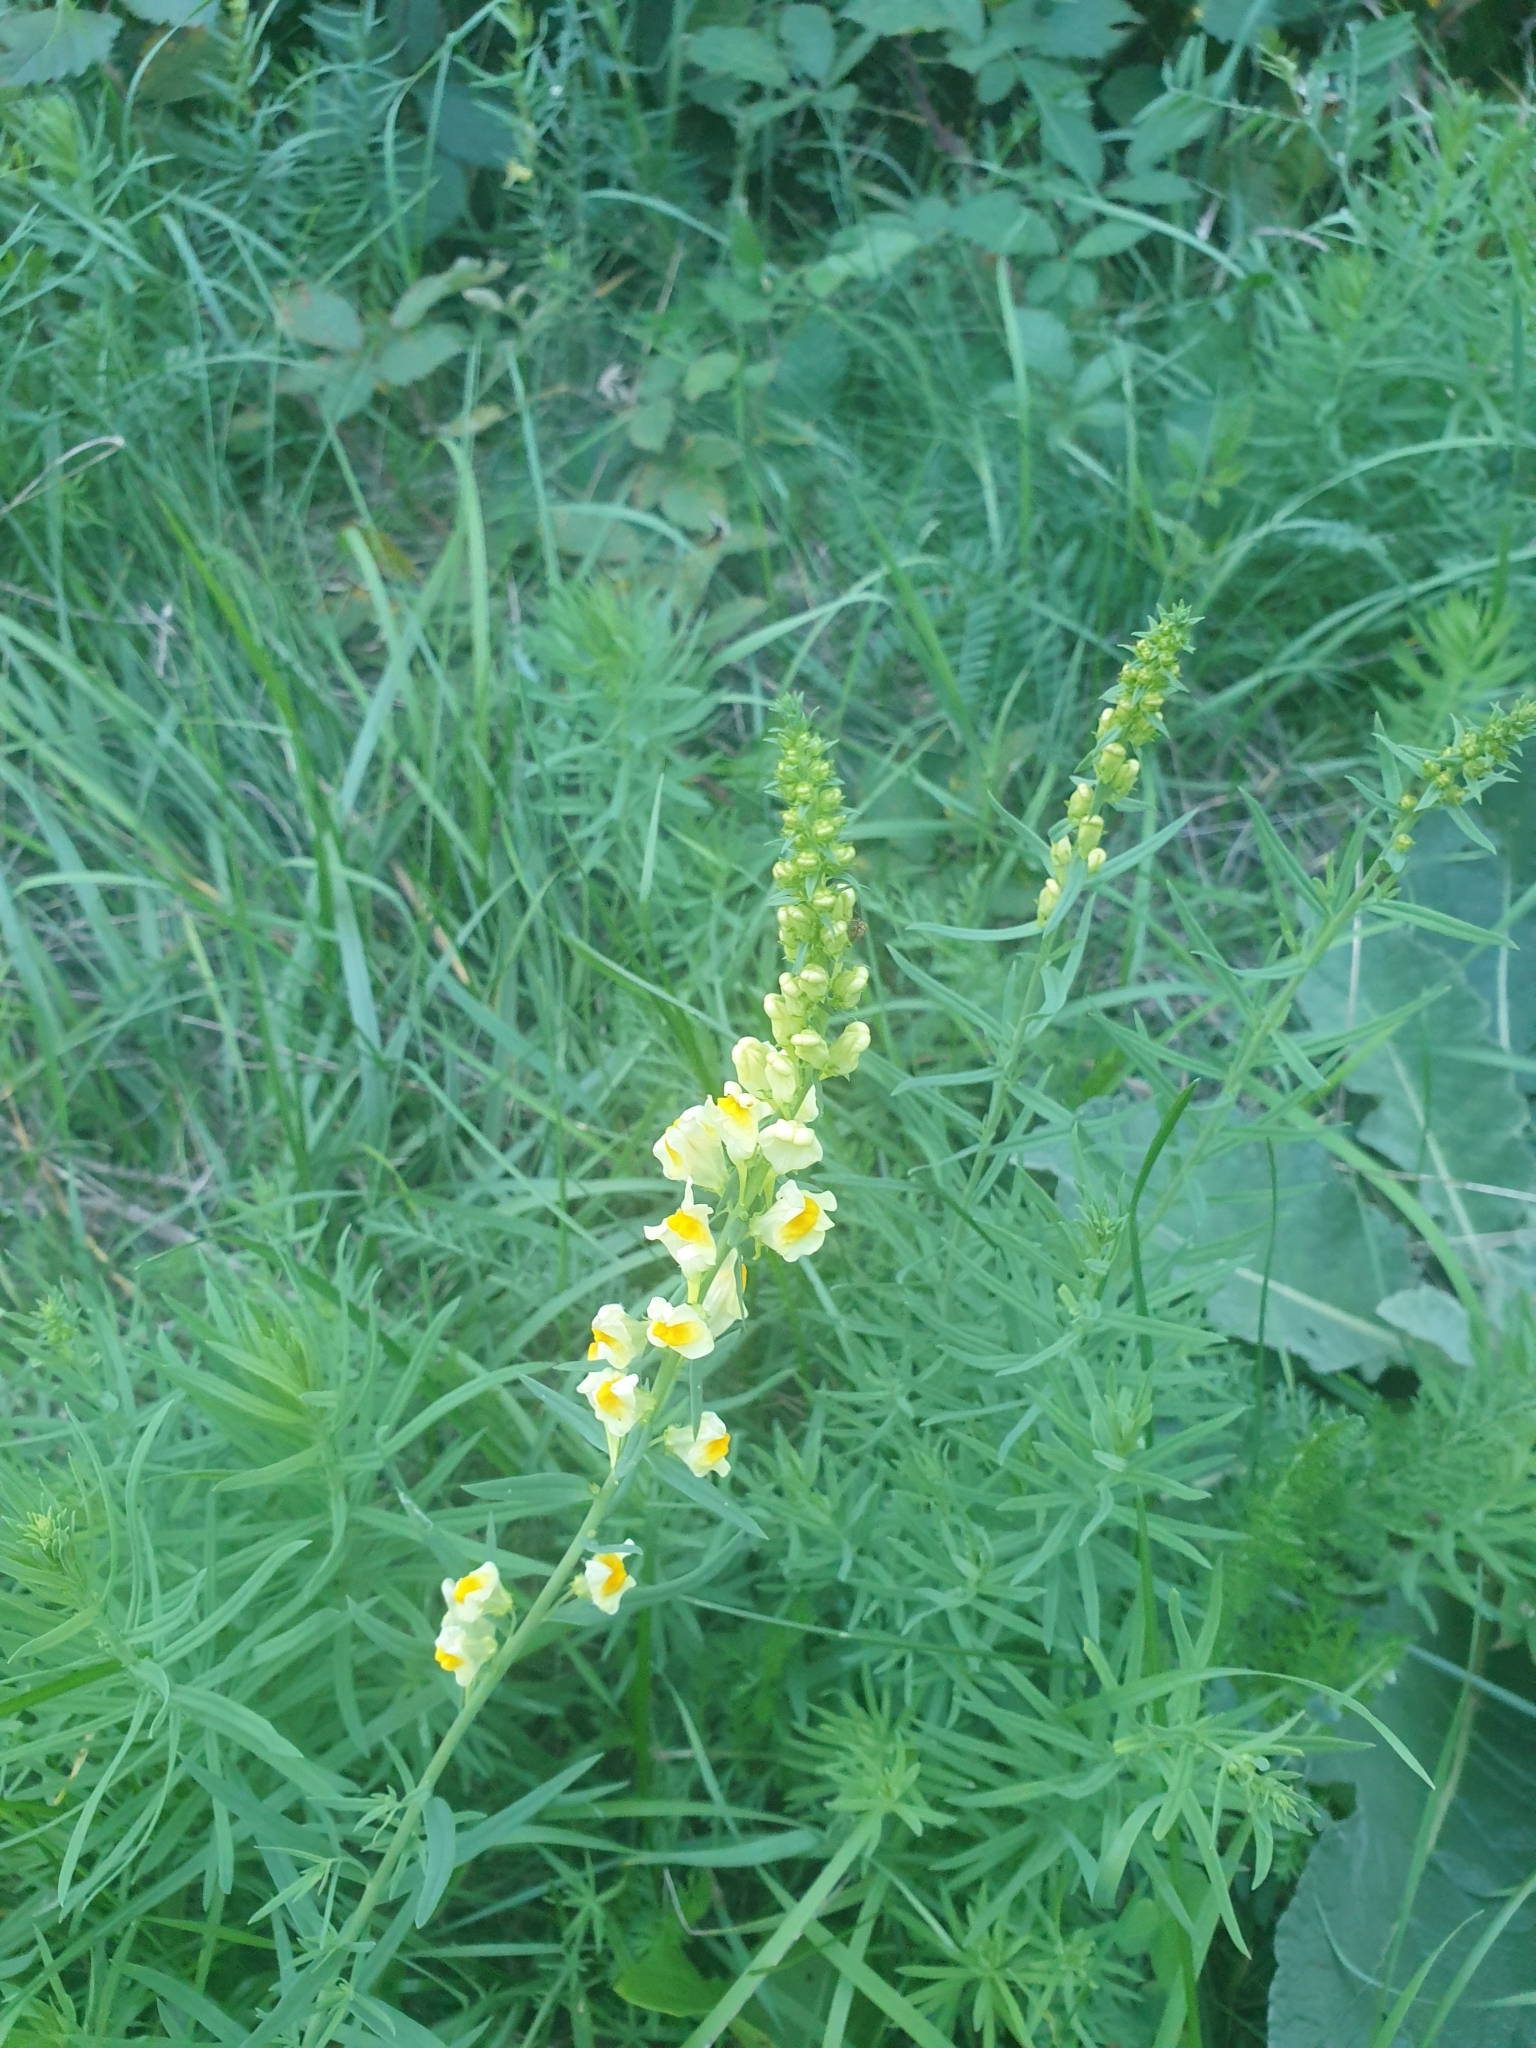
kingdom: Plantae
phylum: Tracheophyta
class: Magnoliopsida
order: Lamiales
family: Plantaginaceae
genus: Linaria
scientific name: Linaria vulgaris
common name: Butter and eggs
